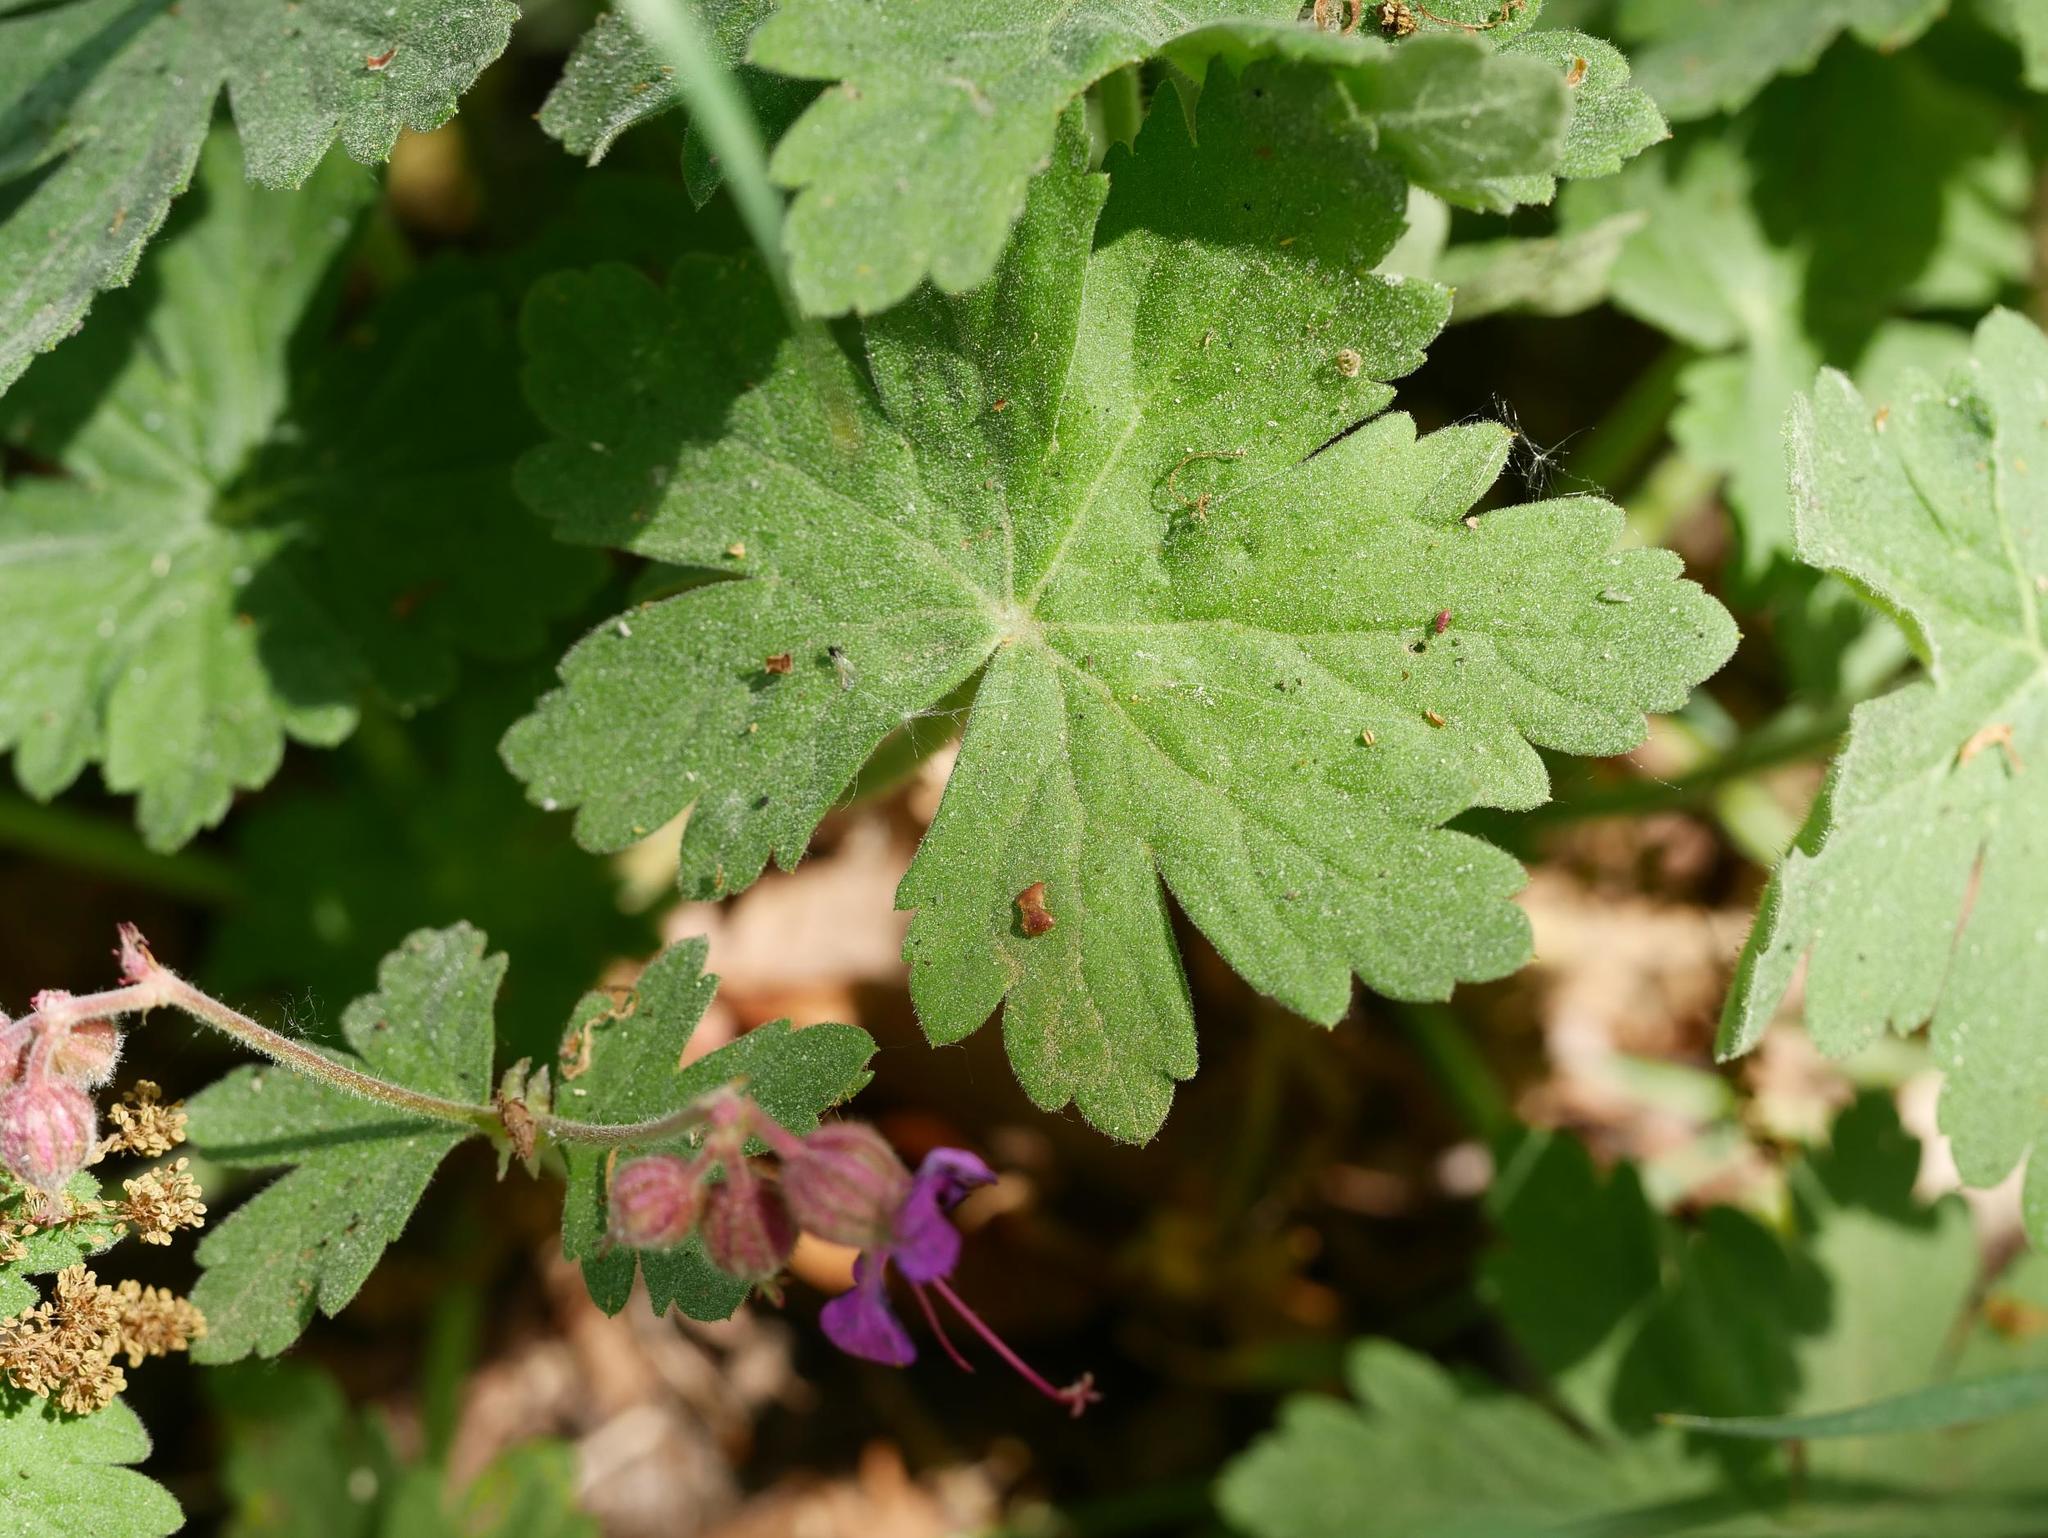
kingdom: Plantae
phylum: Tracheophyta
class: Magnoliopsida
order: Geraniales
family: Geraniaceae
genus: Geranium
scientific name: Geranium macrorrhizum
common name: Rock crane's-bill
